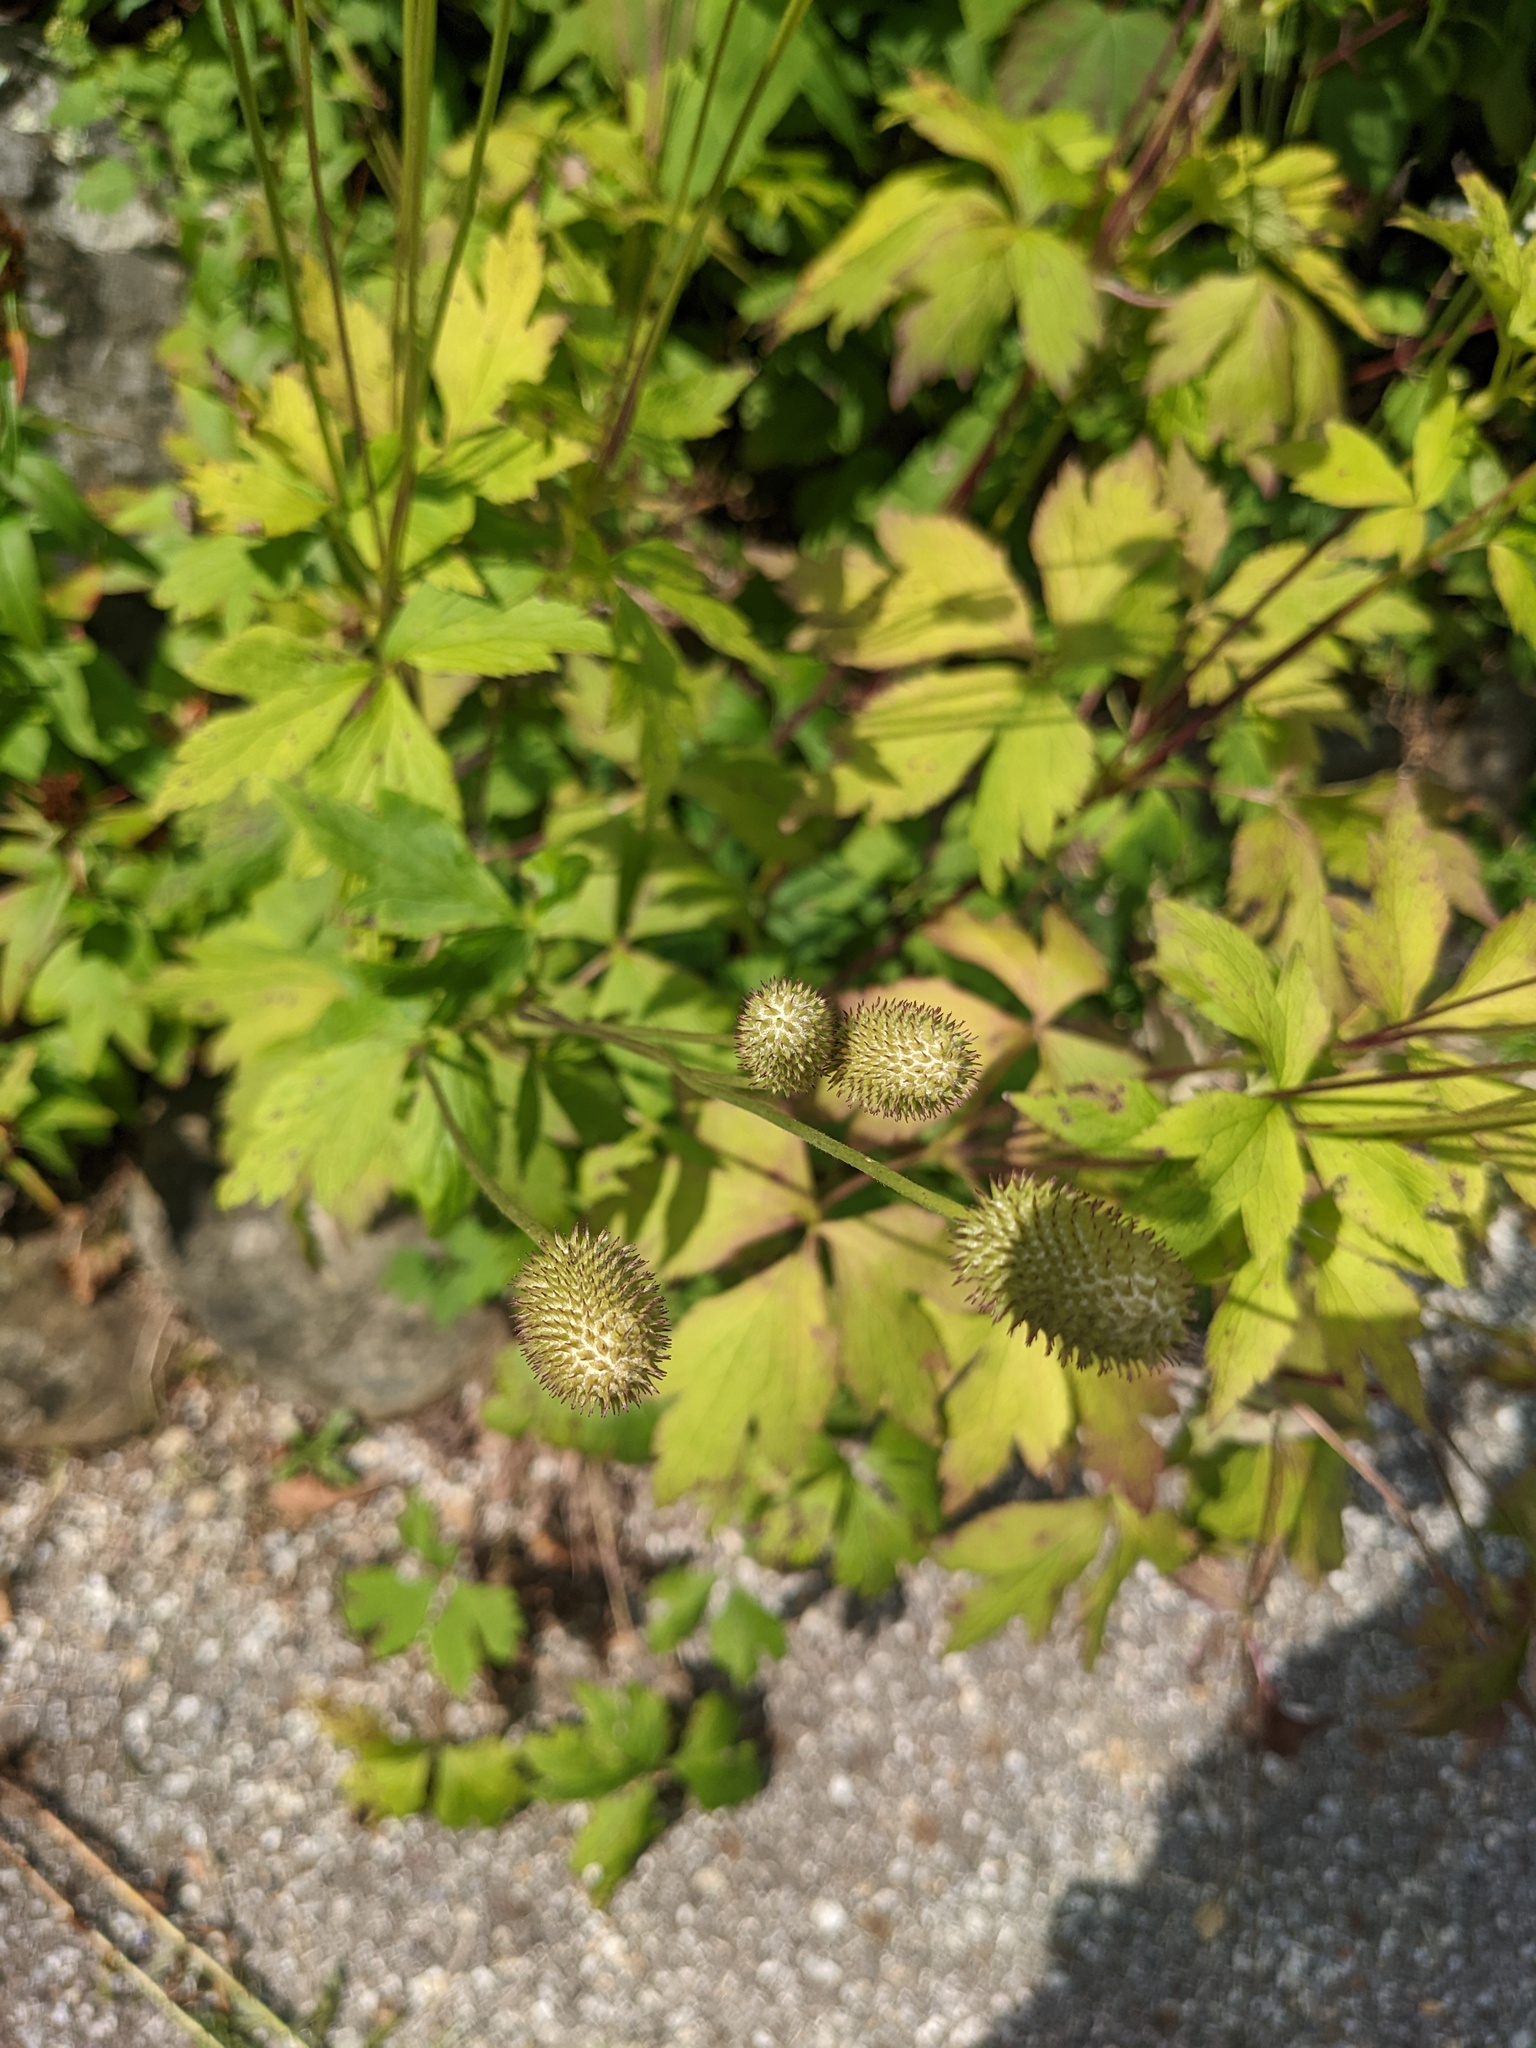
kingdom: Plantae
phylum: Tracheophyta
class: Magnoliopsida
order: Ranunculales
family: Ranunculaceae
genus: Anemone
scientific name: Anemone virginiana
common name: Tall anemone
